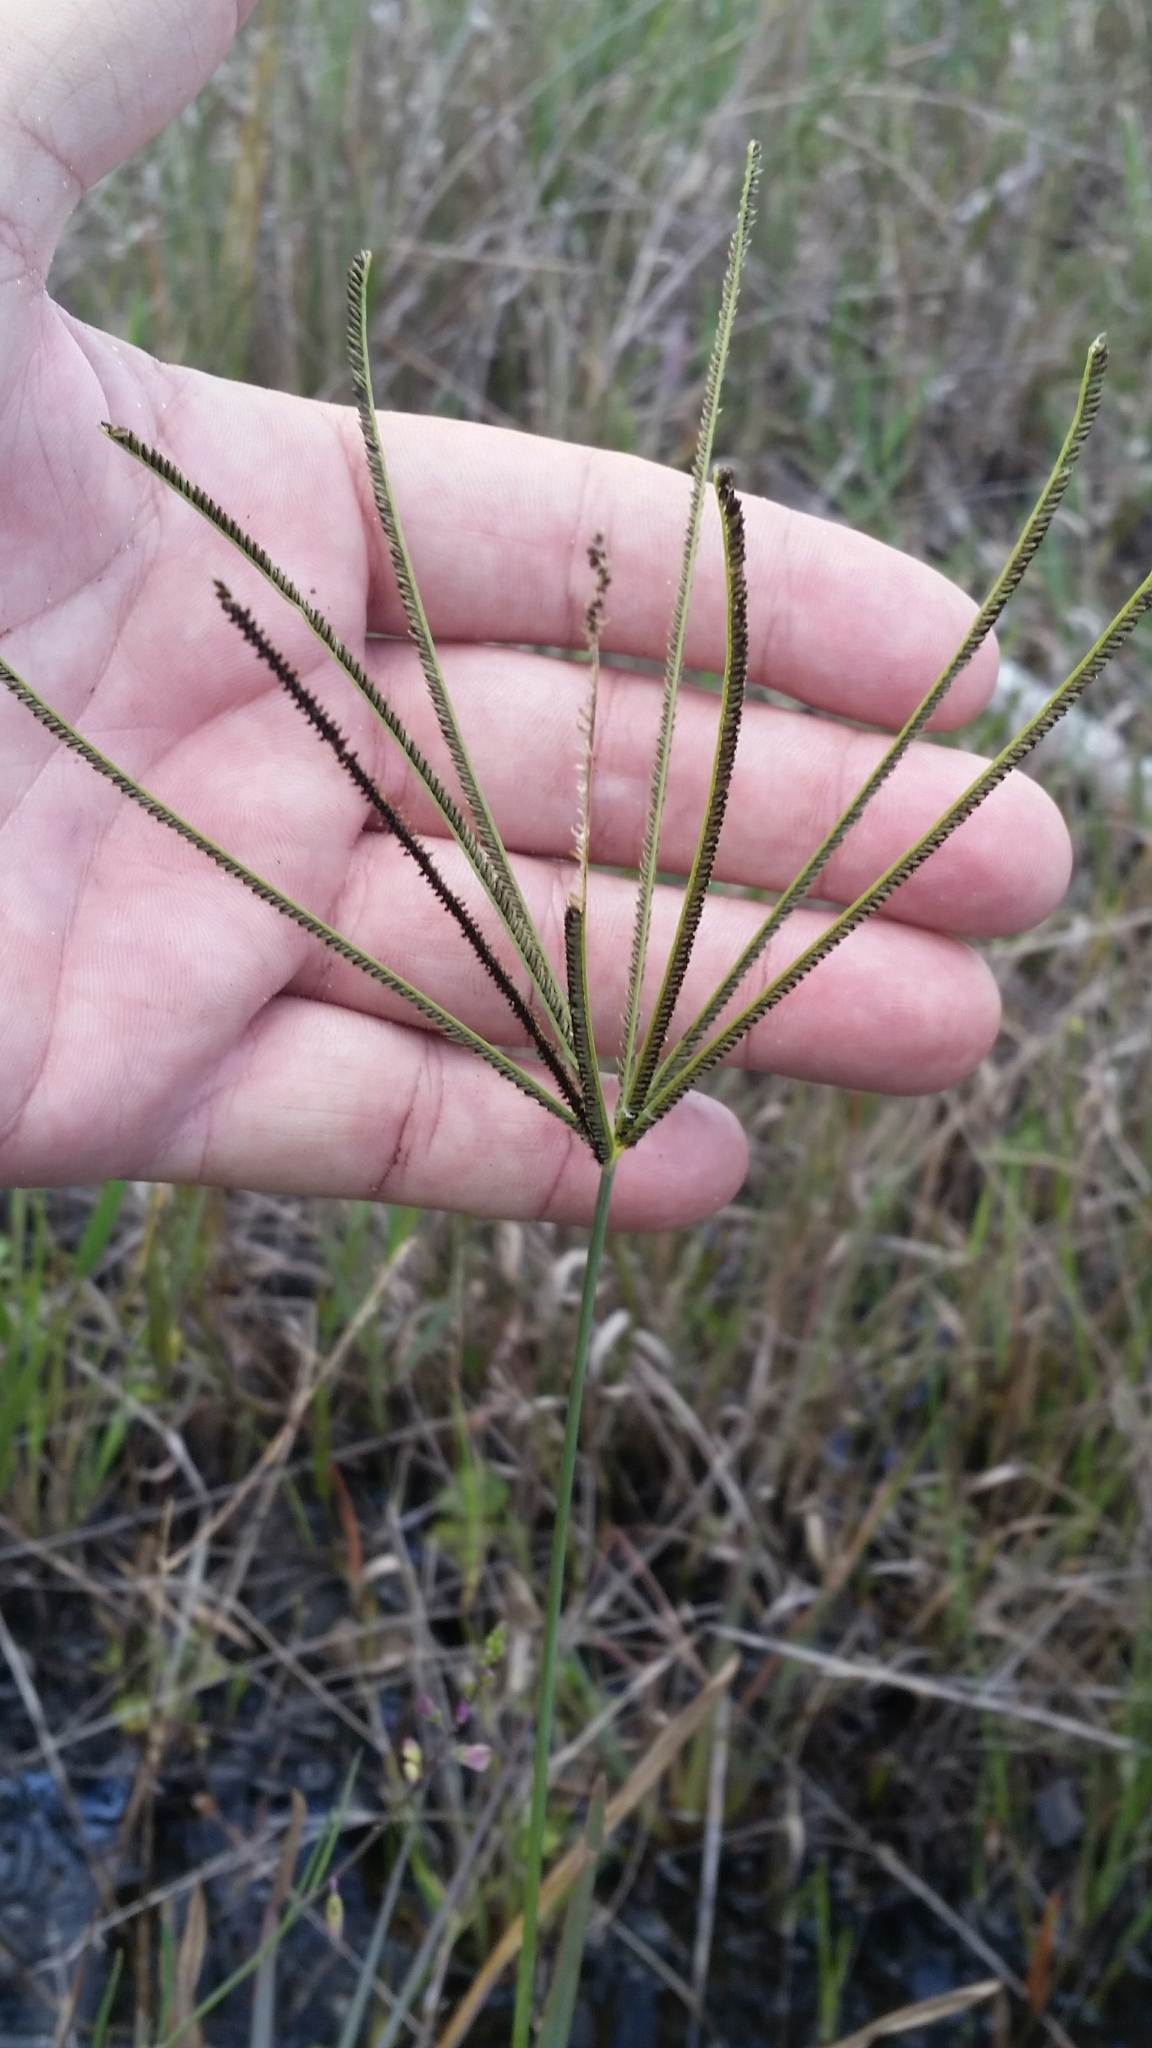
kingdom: Plantae
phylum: Tracheophyta
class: Liliopsida
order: Poales
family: Poaceae
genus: Eustachys
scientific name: Eustachys glauca
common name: Saltmarsh finger grass
